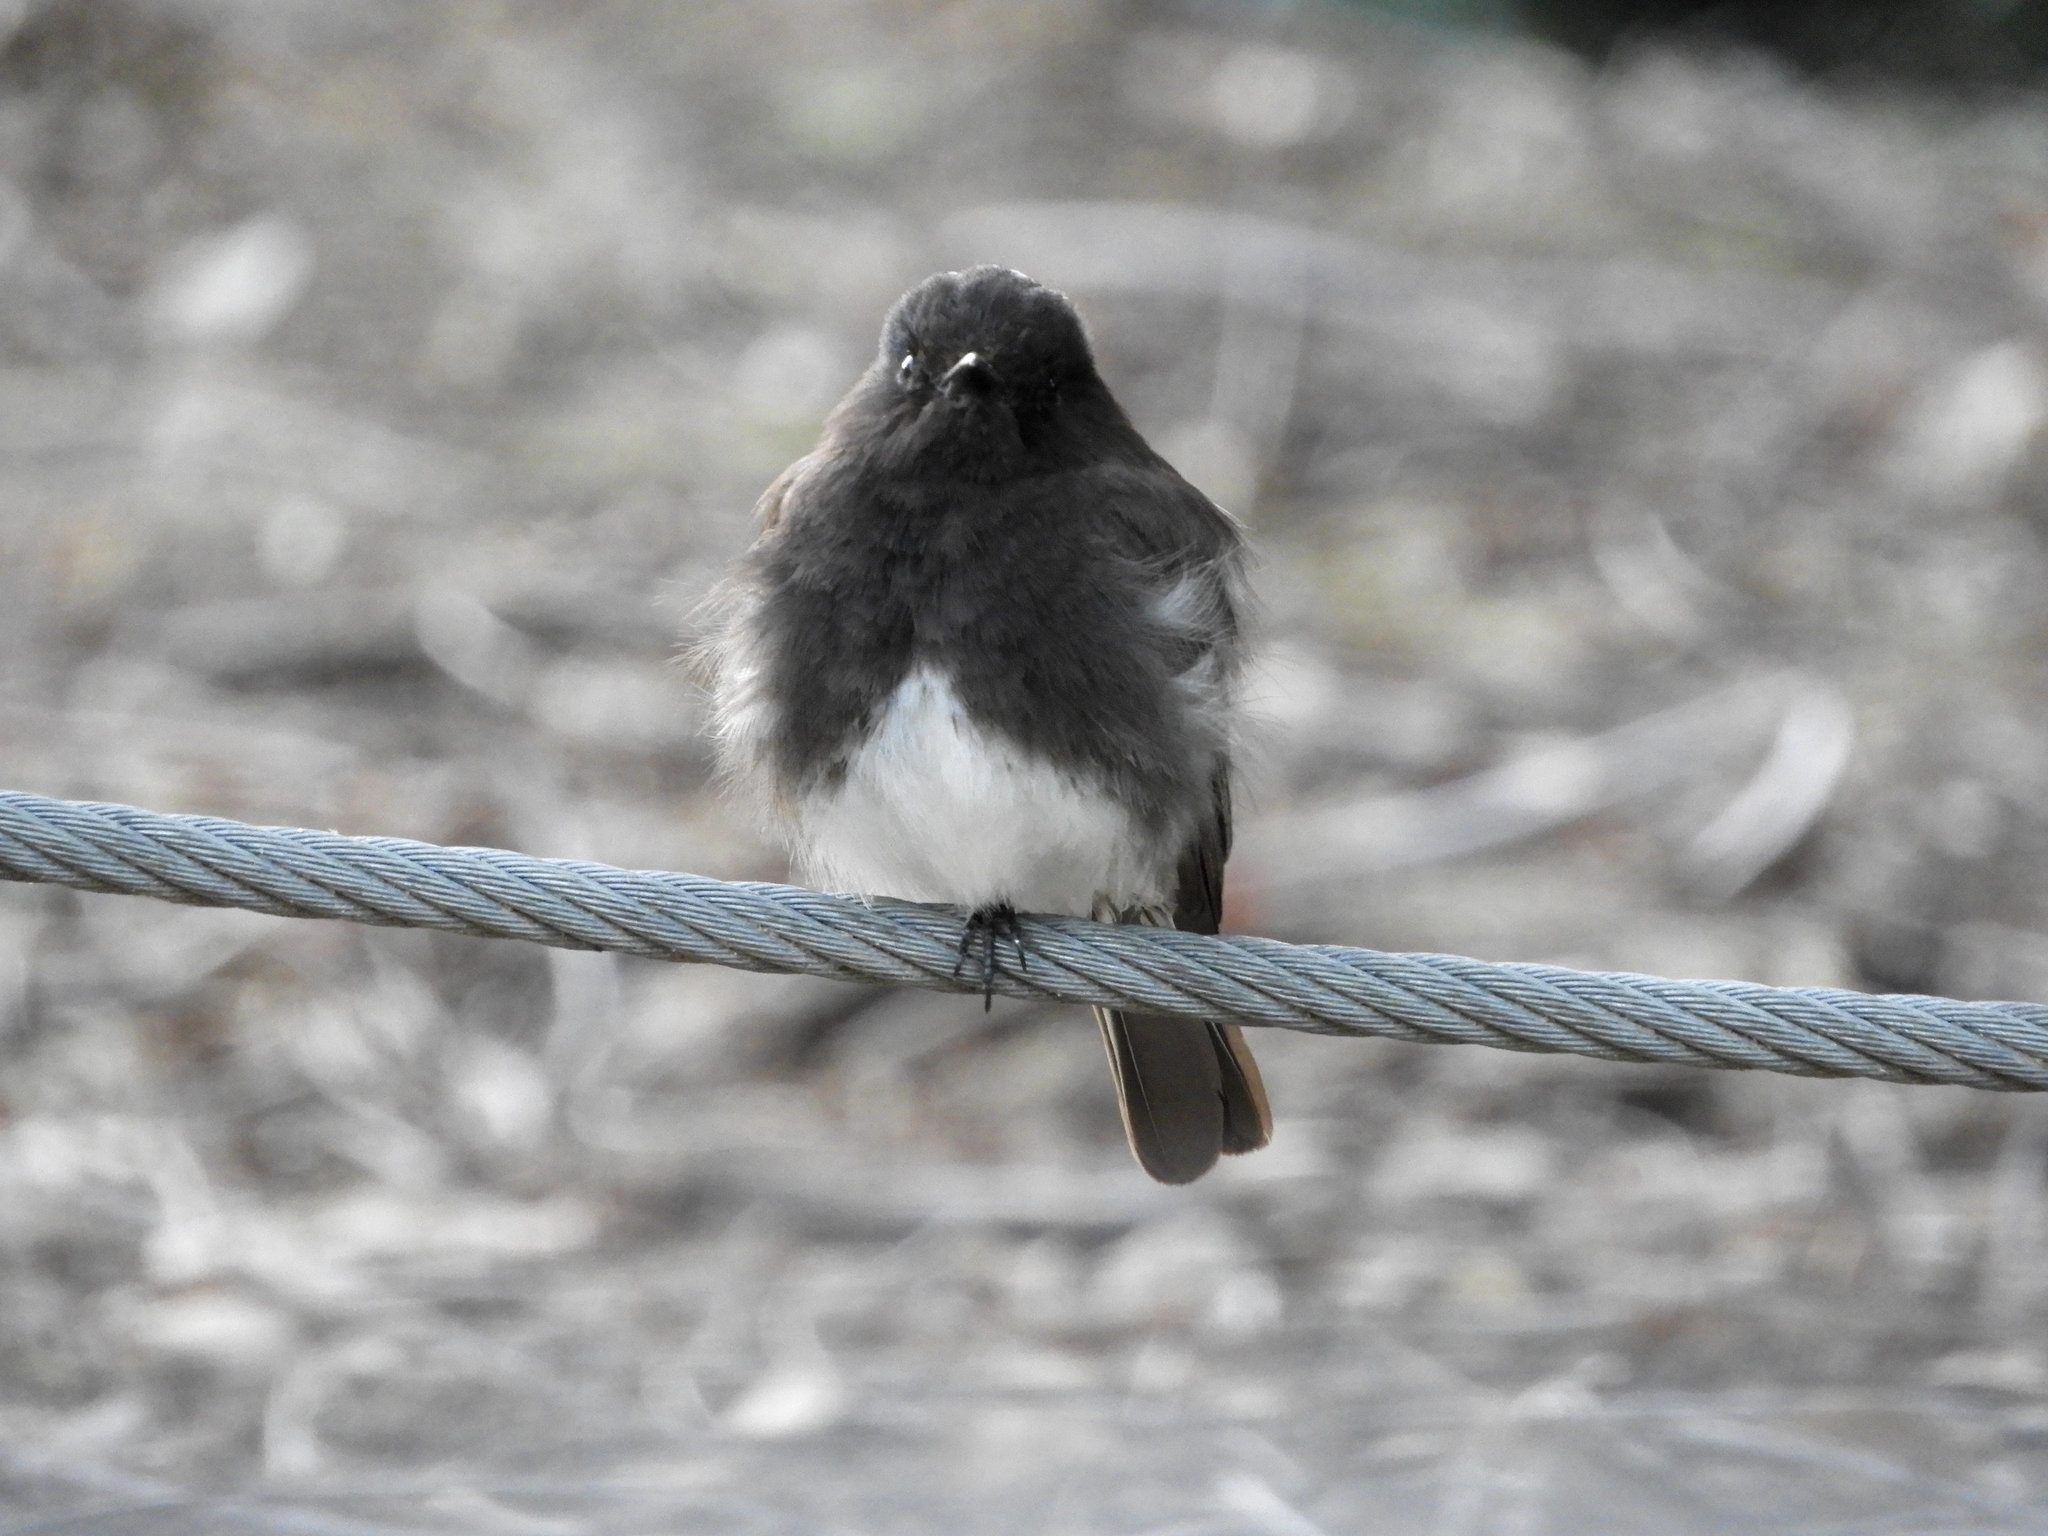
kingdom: Animalia
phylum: Chordata
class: Aves
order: Passeriformes
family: Tyrannidae
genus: Sayornis
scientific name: Sayornis nigricans
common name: Black phoebe
